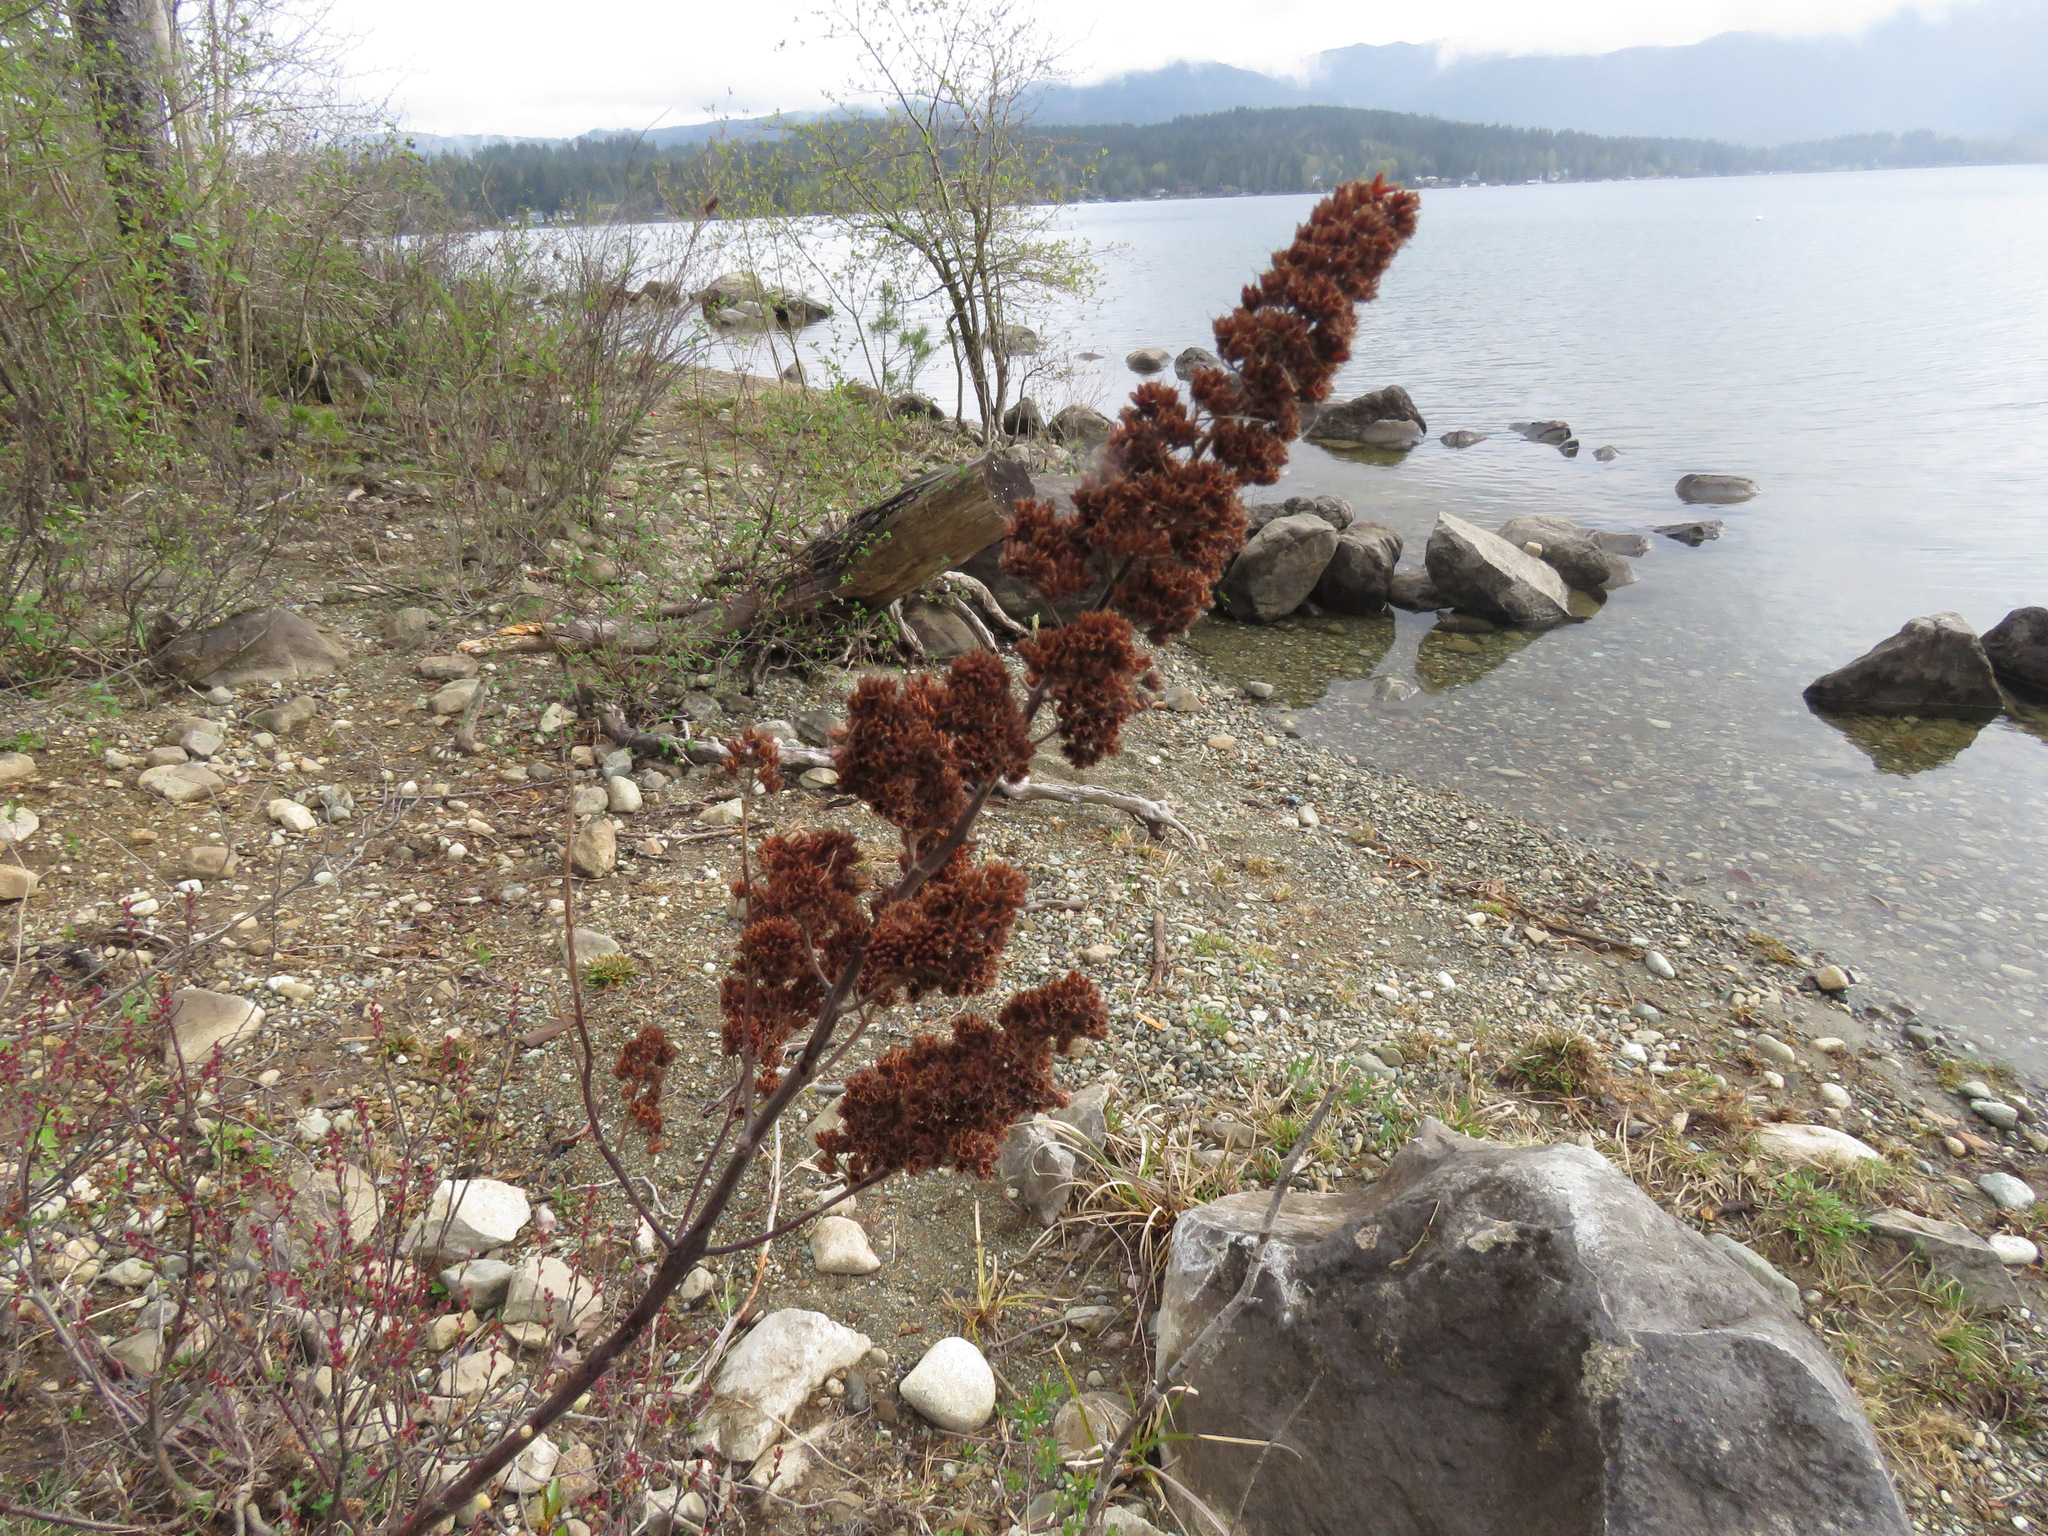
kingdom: Plantae
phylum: Tracheophyta
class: Magnoliopsida
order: Rosales
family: Rosaceae
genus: Spiraea
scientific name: Spiraea douglasii
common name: Steeplebush
